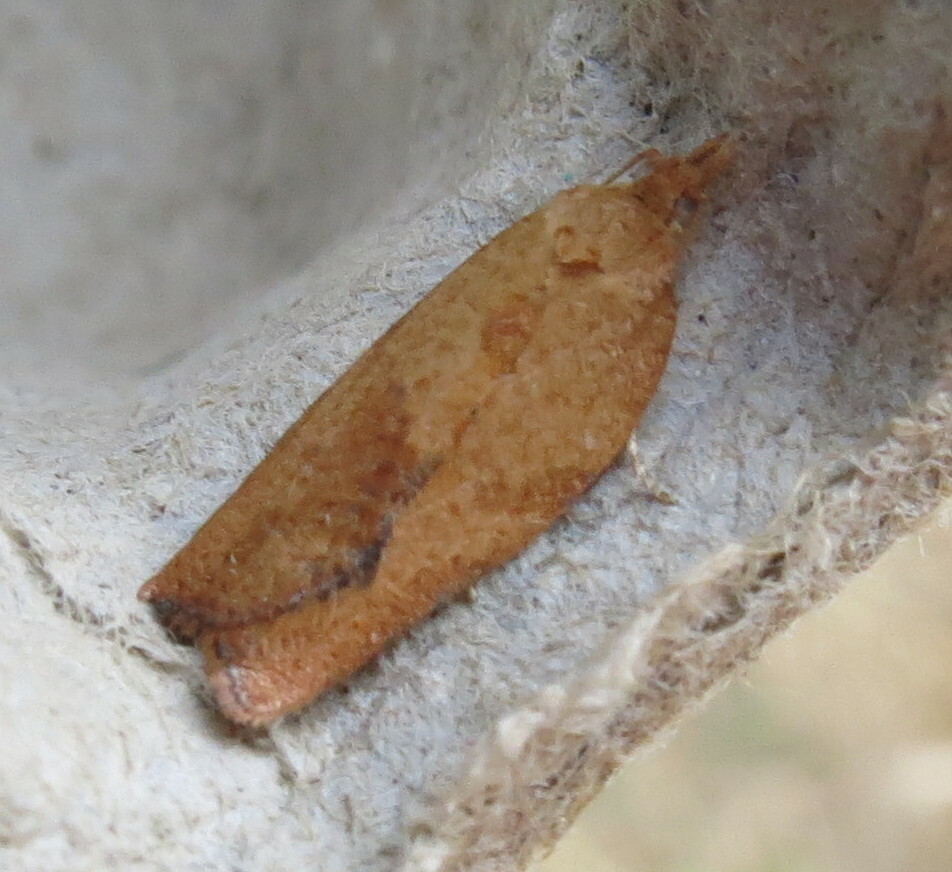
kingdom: Animalia
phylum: Arthropoda
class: Insecta
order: Lepidoptera
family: Tortricidae
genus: Epiphyas
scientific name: Epiphyas postvittana
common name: Light brown apple moth
